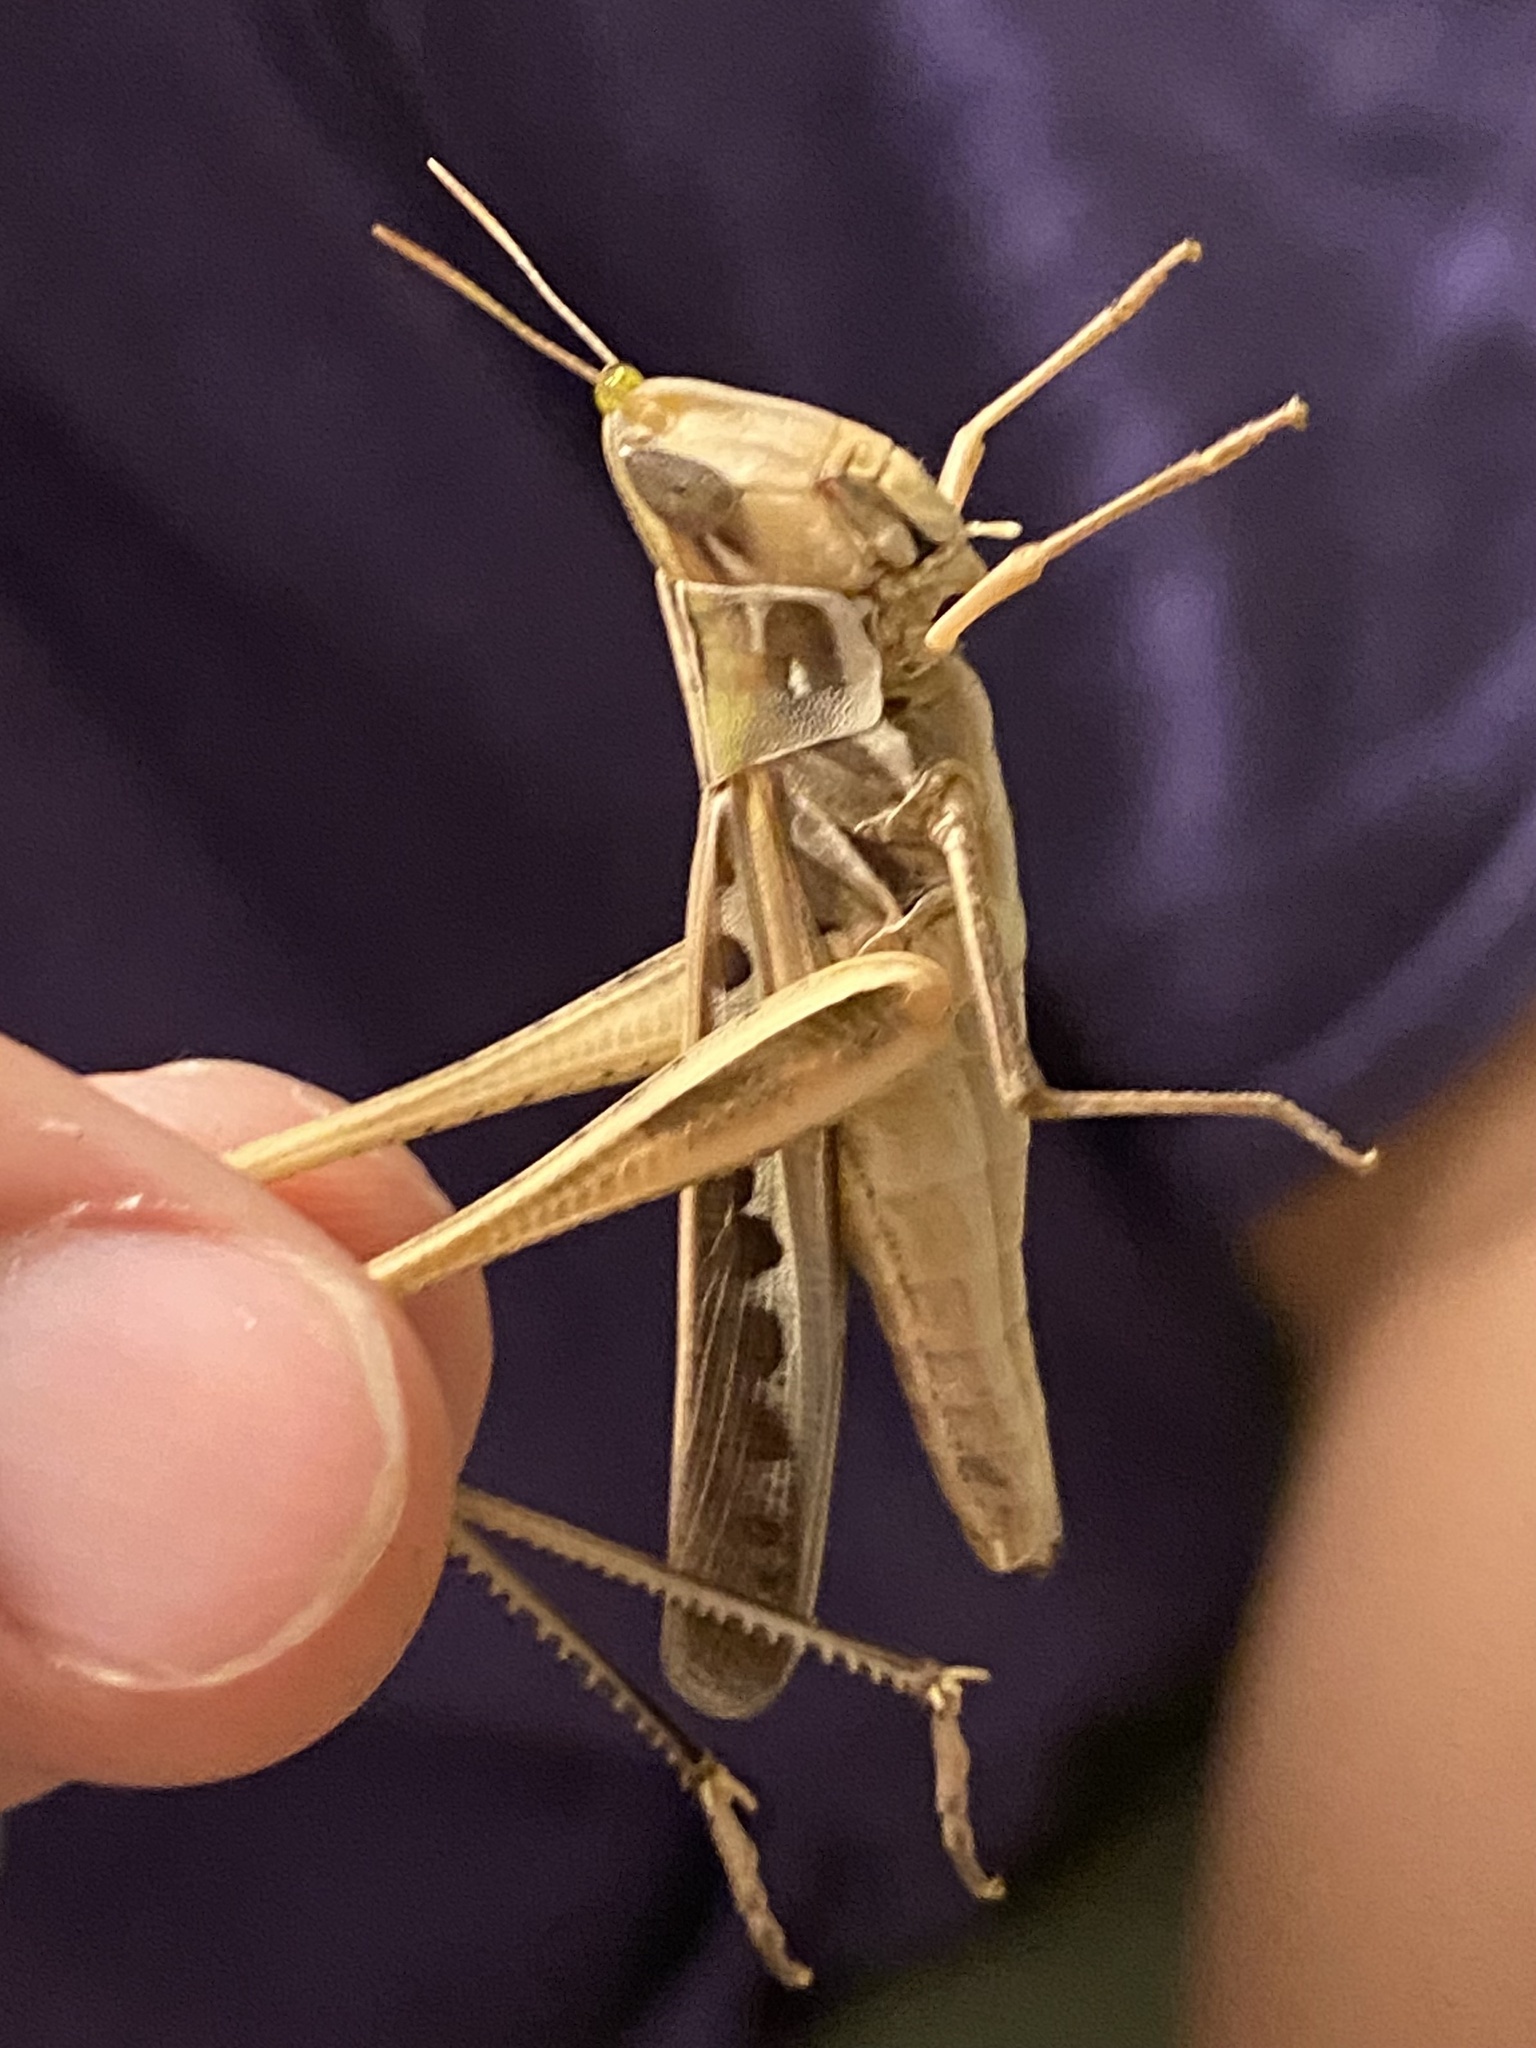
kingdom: Animalia
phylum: Arthropoda
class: Insecta
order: Orthoptera
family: Acrididae
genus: Syrbula
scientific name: Syrbula admirabilis
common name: Handsome grasshopper
